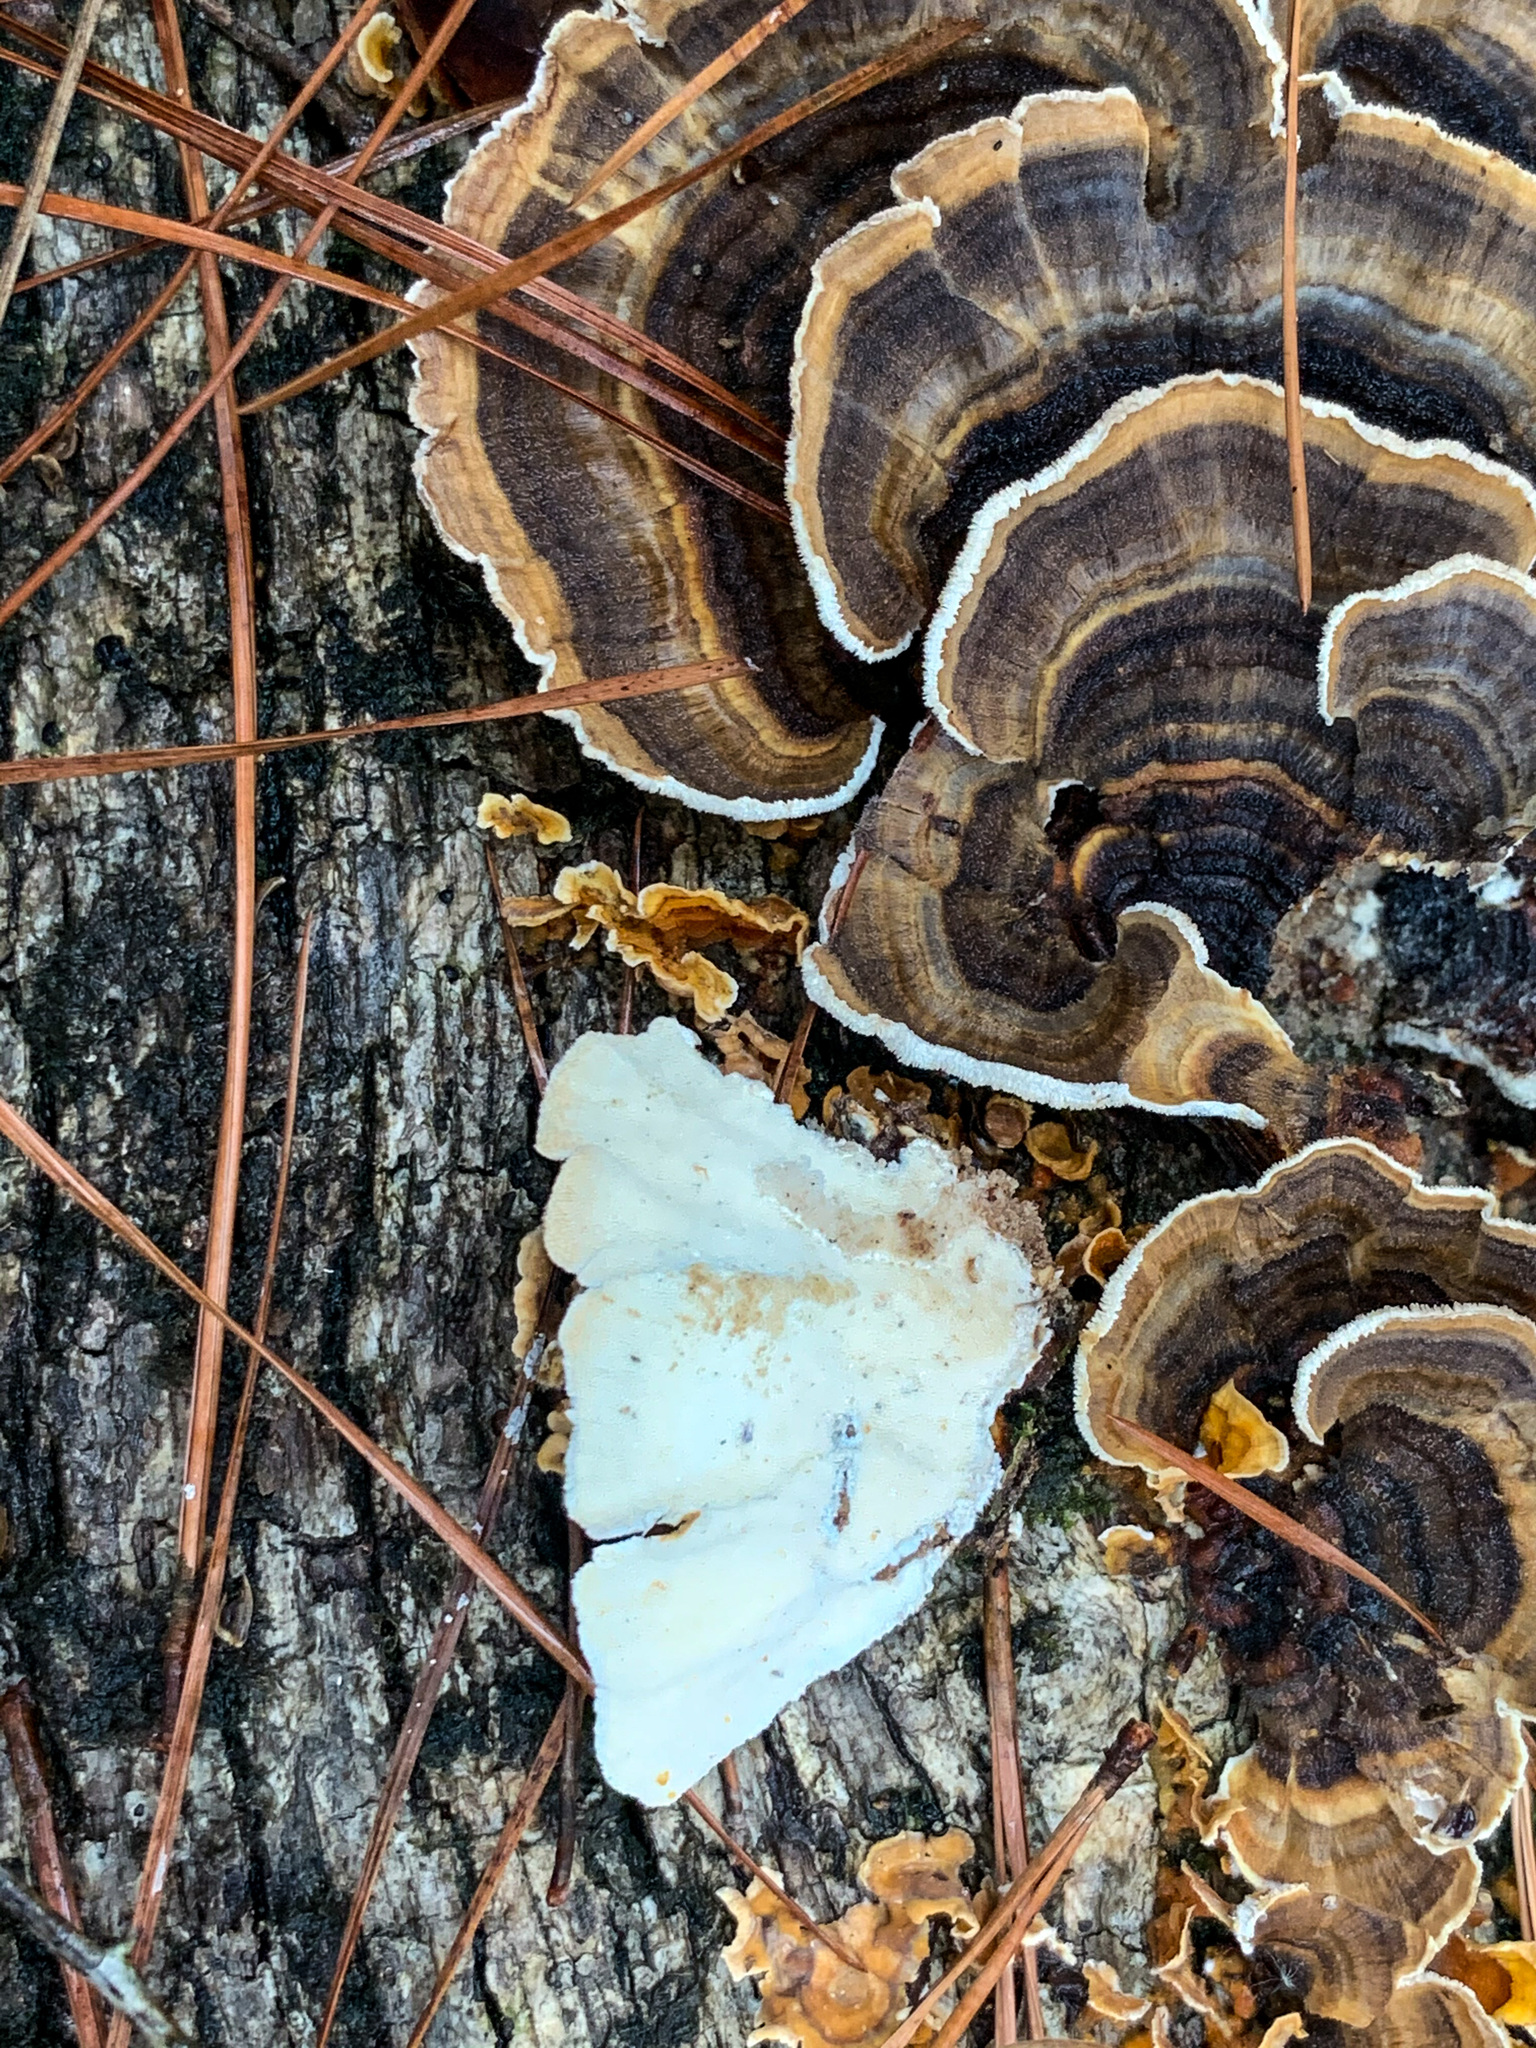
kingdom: Fungi
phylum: Basidiomycota
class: Agaricomycetes
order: Polyporales
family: Polyporaceae
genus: Trametes
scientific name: Trametes versicolor
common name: Turkeytail
